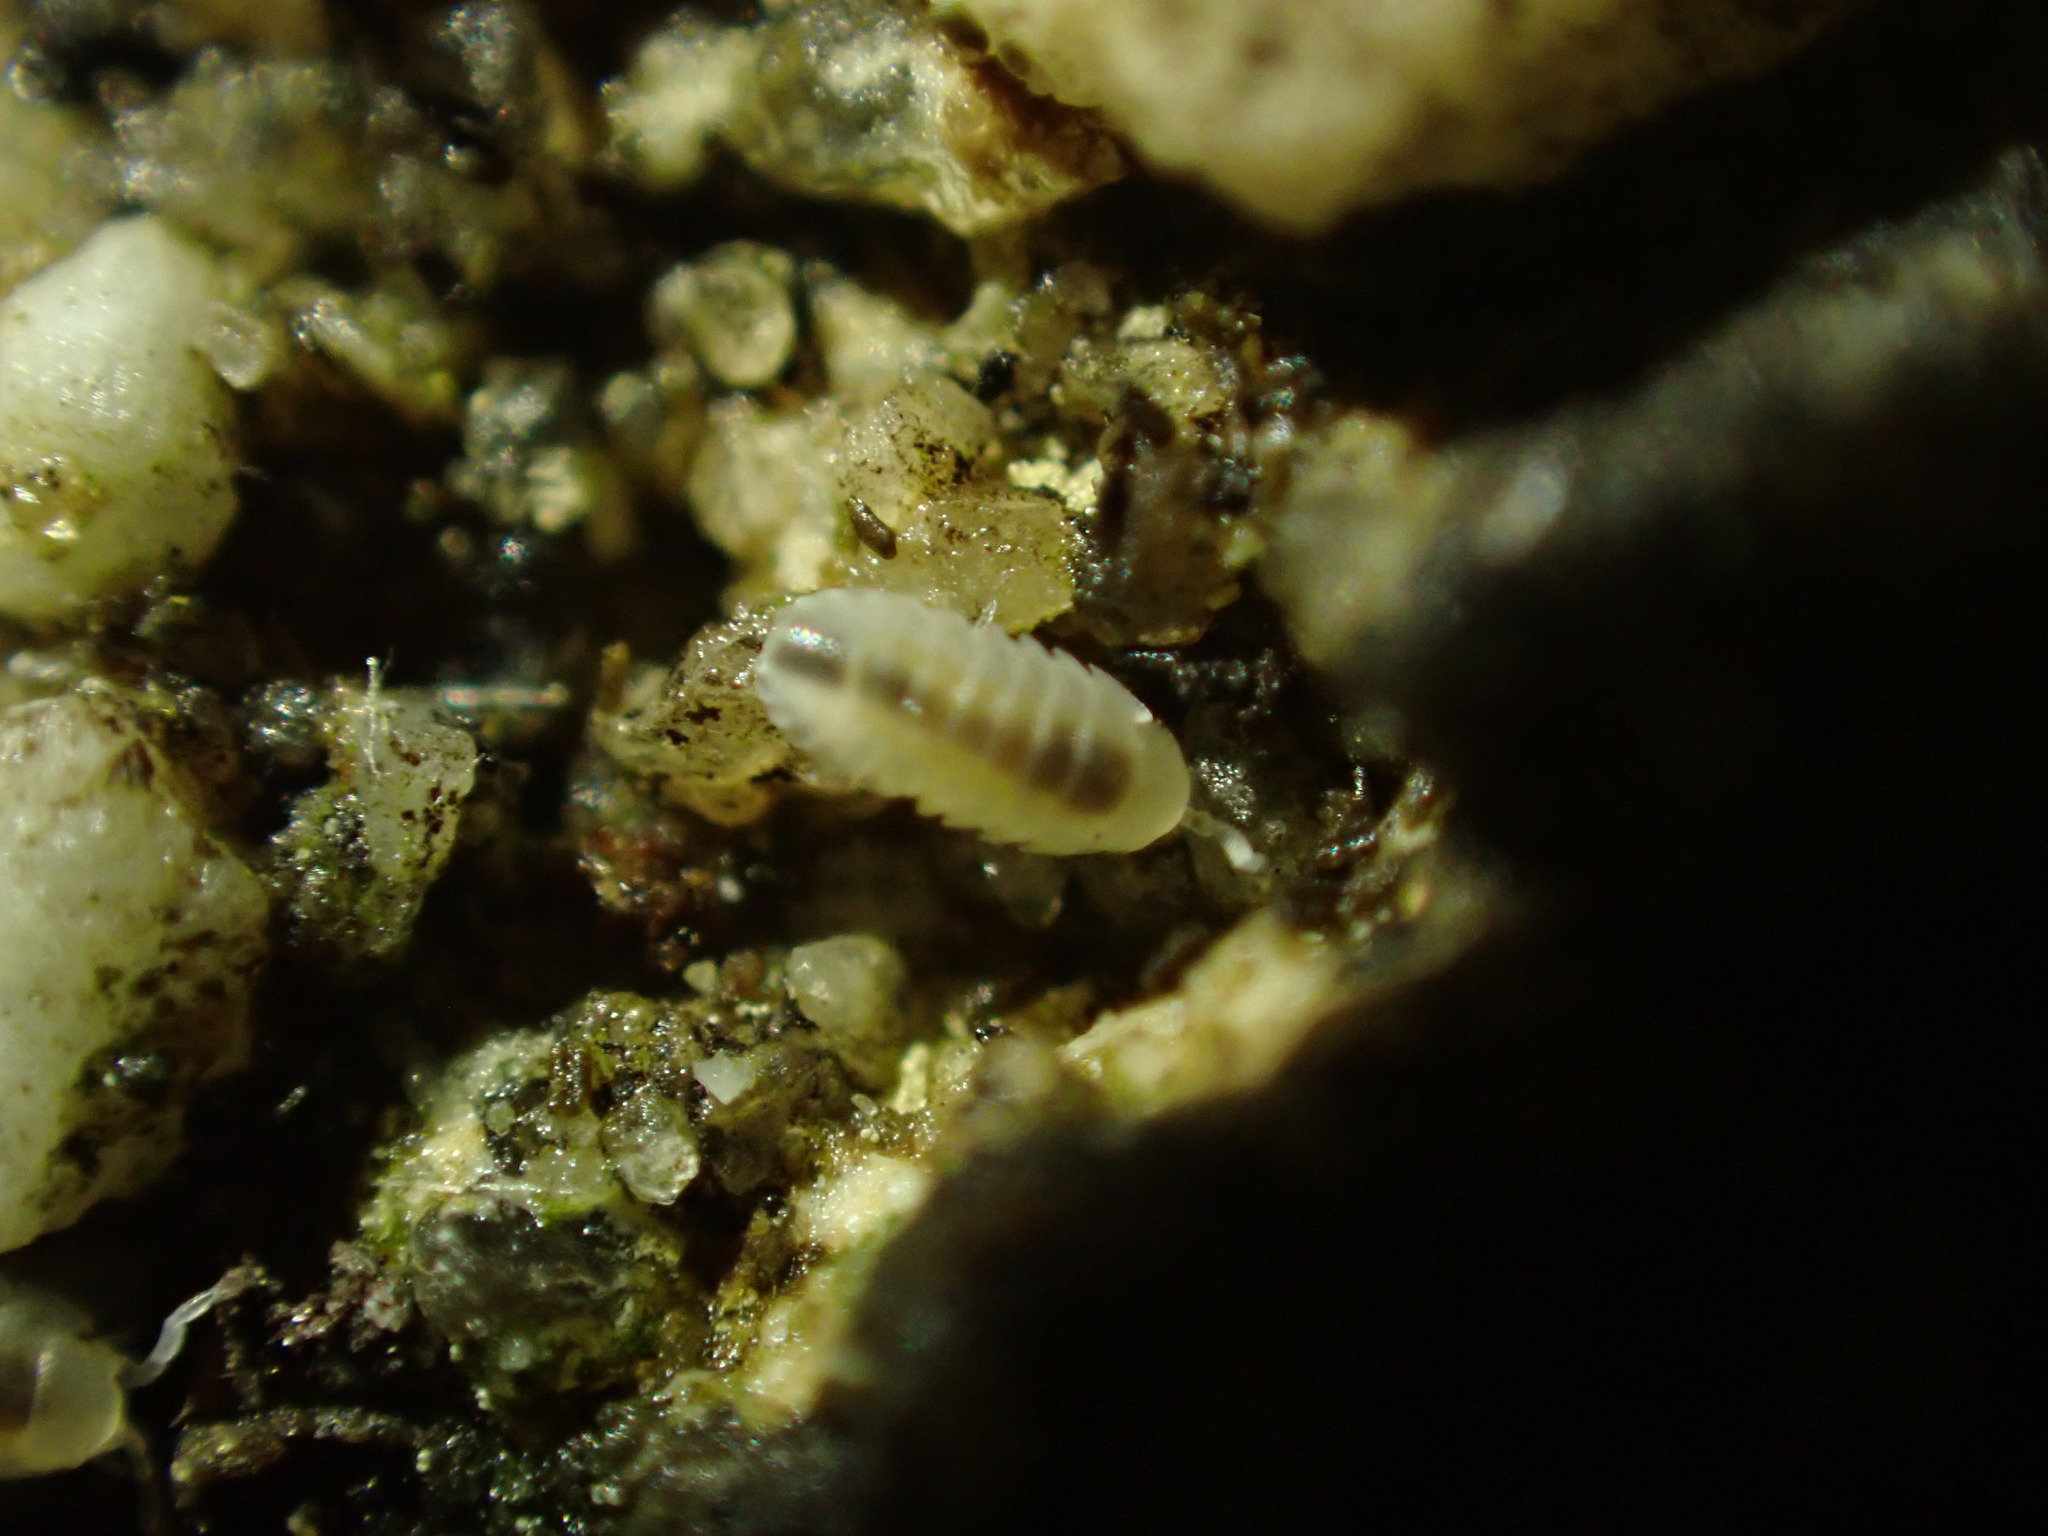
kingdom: Animalia
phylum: Arthropoda
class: Malacostraca
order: Isopoda
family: Armadillidiidae
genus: Armadillidium
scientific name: Armadillidium vulgare
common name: Common pill woodlouse
